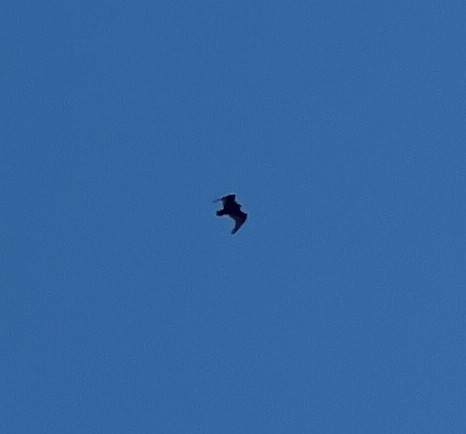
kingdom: Animalia
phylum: Chordata
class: Aves
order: Accipitriformes
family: Cathartidae
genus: Cathartes
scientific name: Cathartes aura
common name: Turkey vulture
